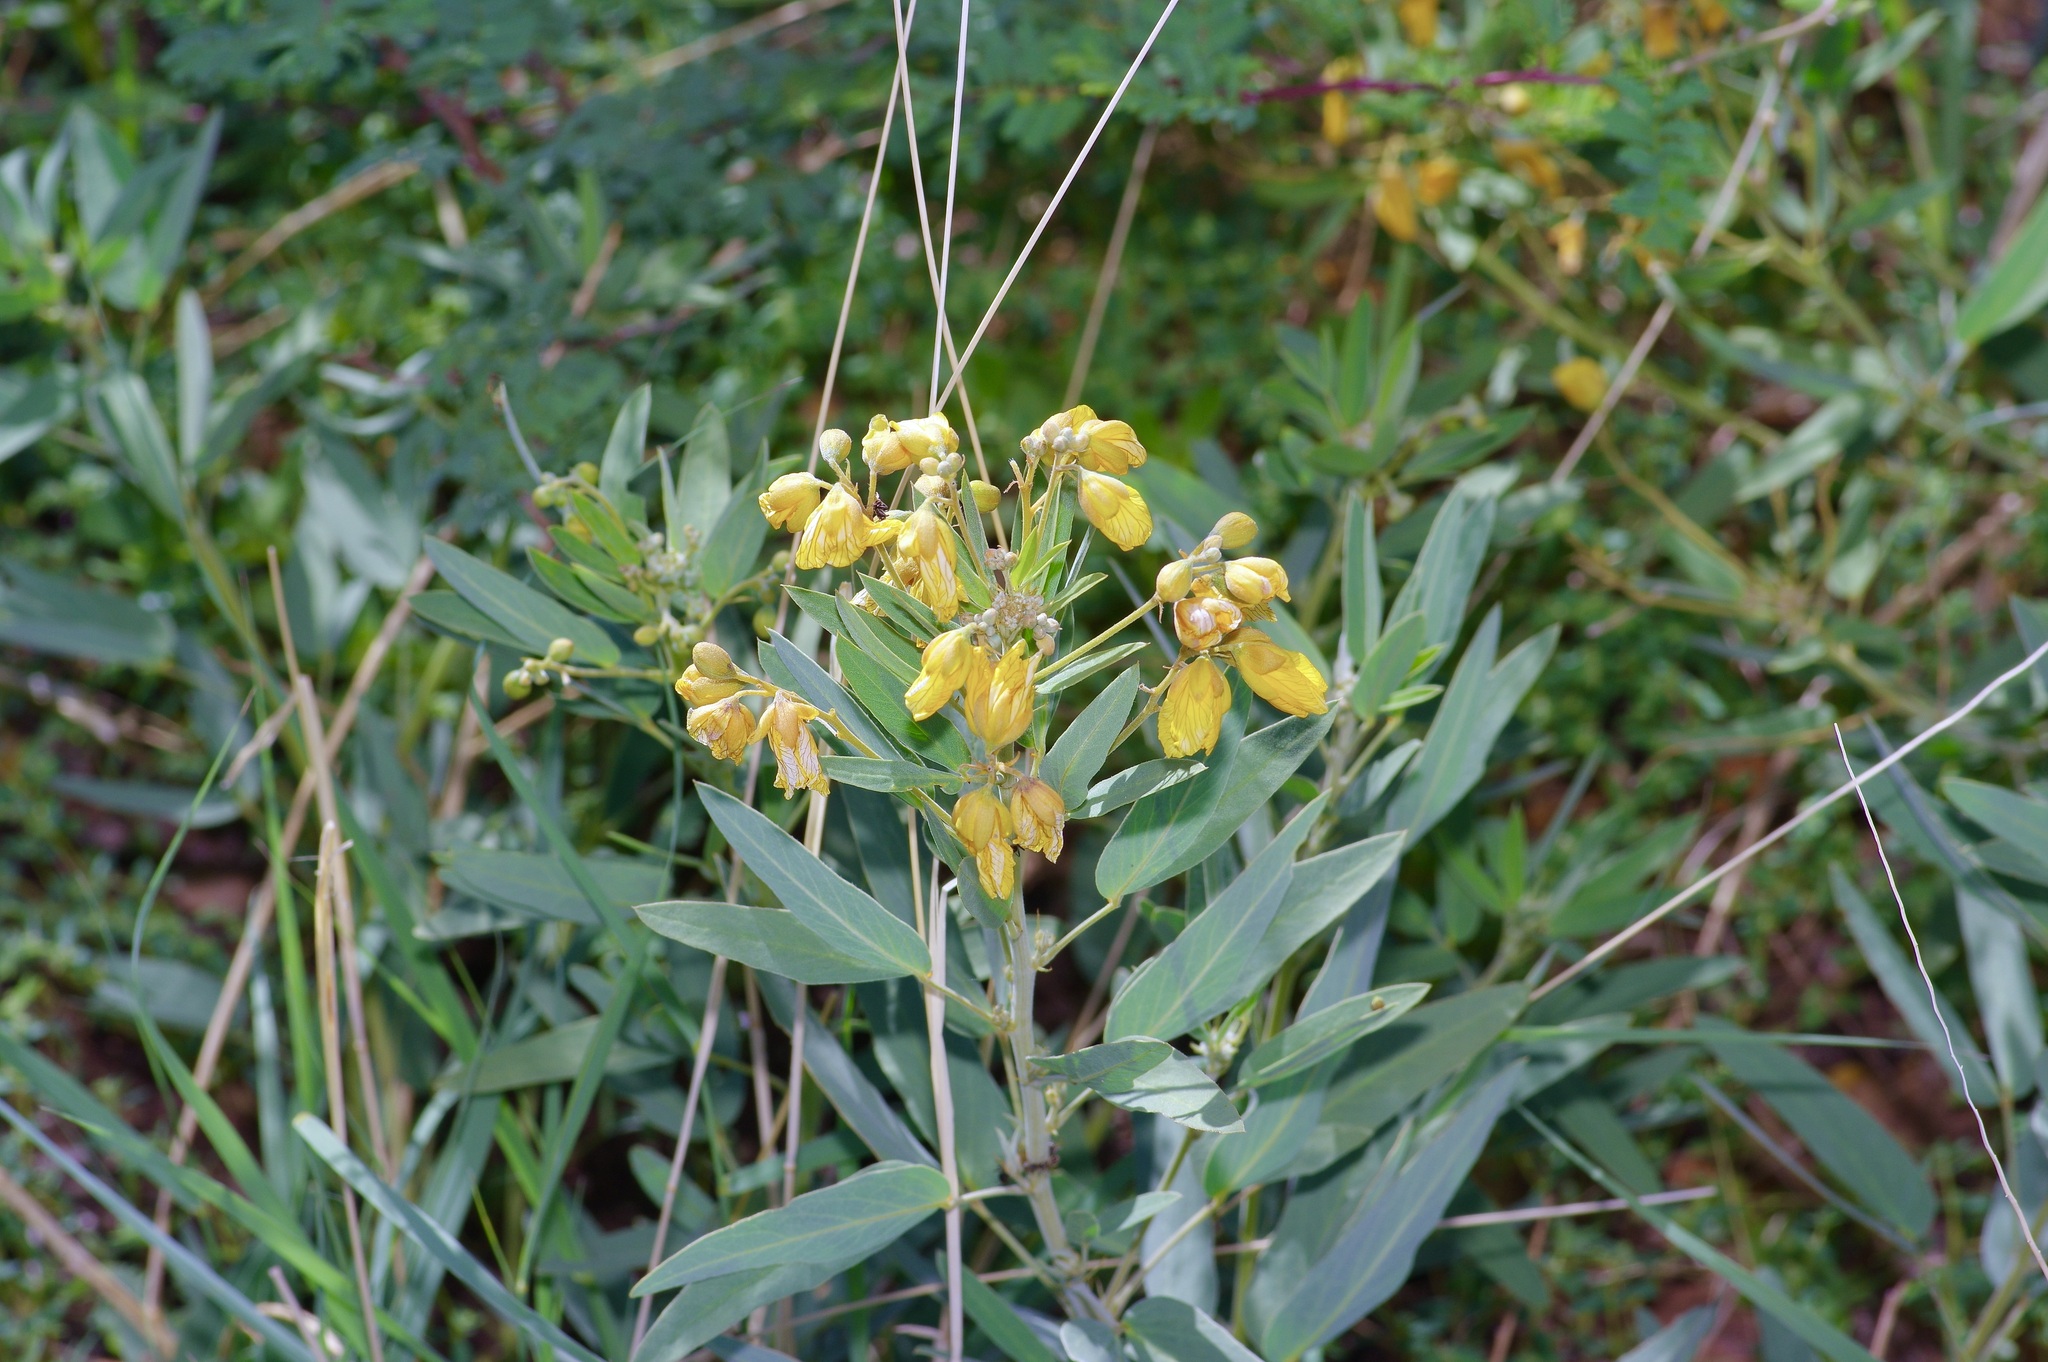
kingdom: Plantae
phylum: Tracheophyta
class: Magnoliopsida
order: Fabales
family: Fabaceae
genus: Senna
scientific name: Senna roemeriana
